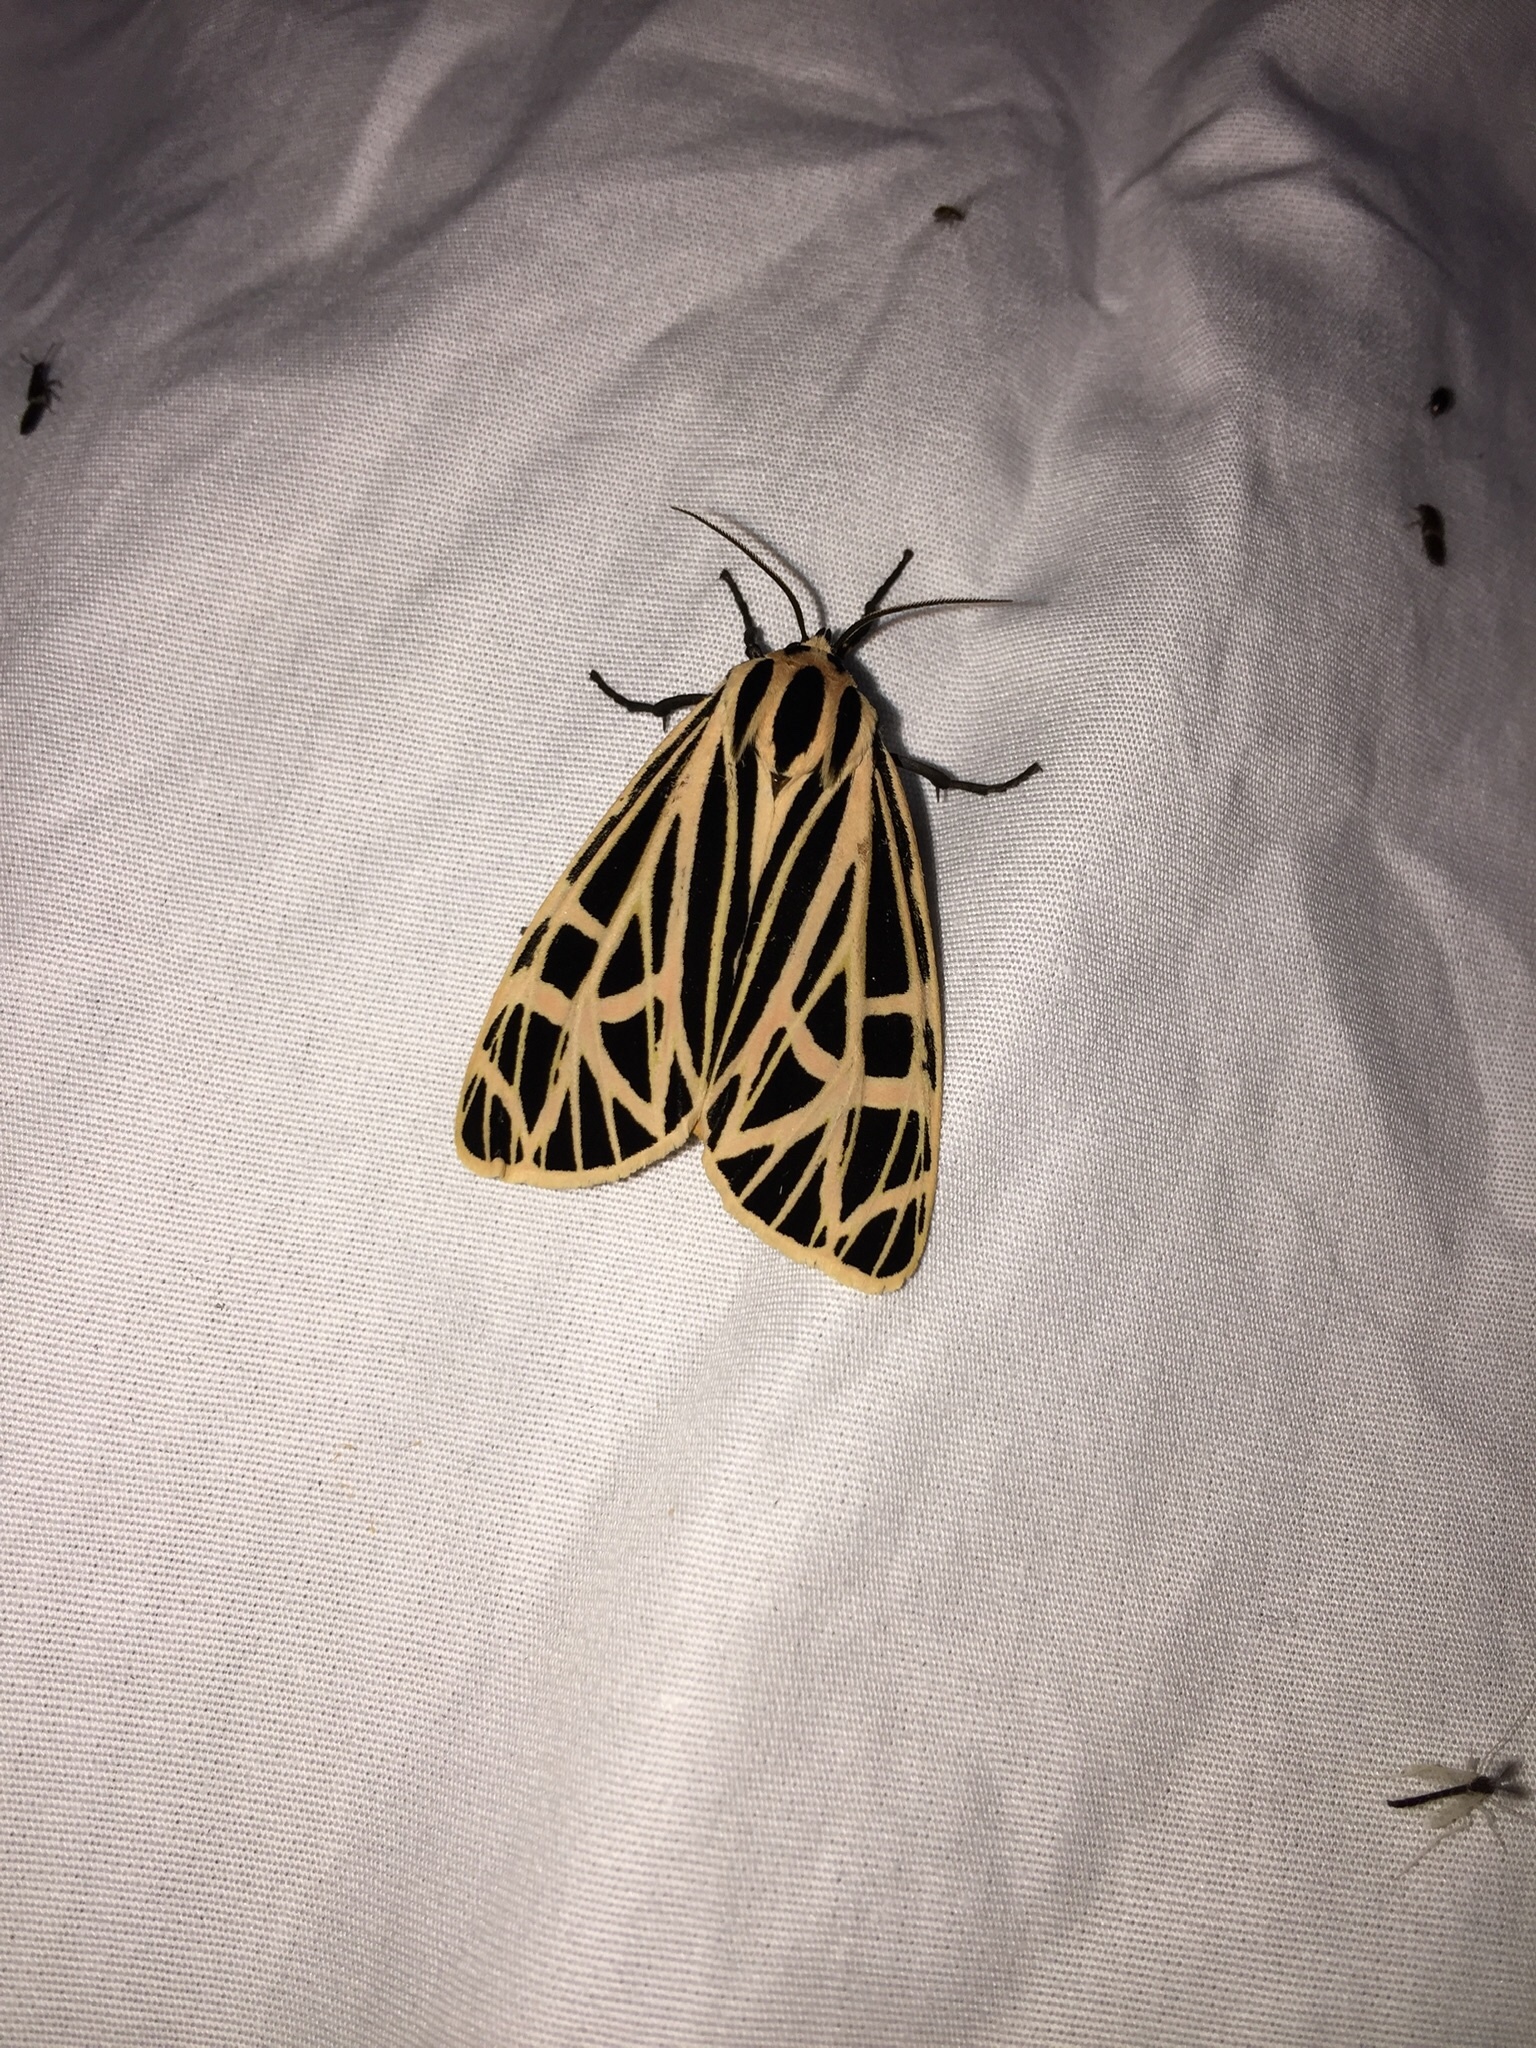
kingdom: Animalia
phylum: Arthropoda
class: Insecta
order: Lepidoptera
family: Erebidae
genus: Grammia
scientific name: Grammia virgo
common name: Virgin tiger moth
